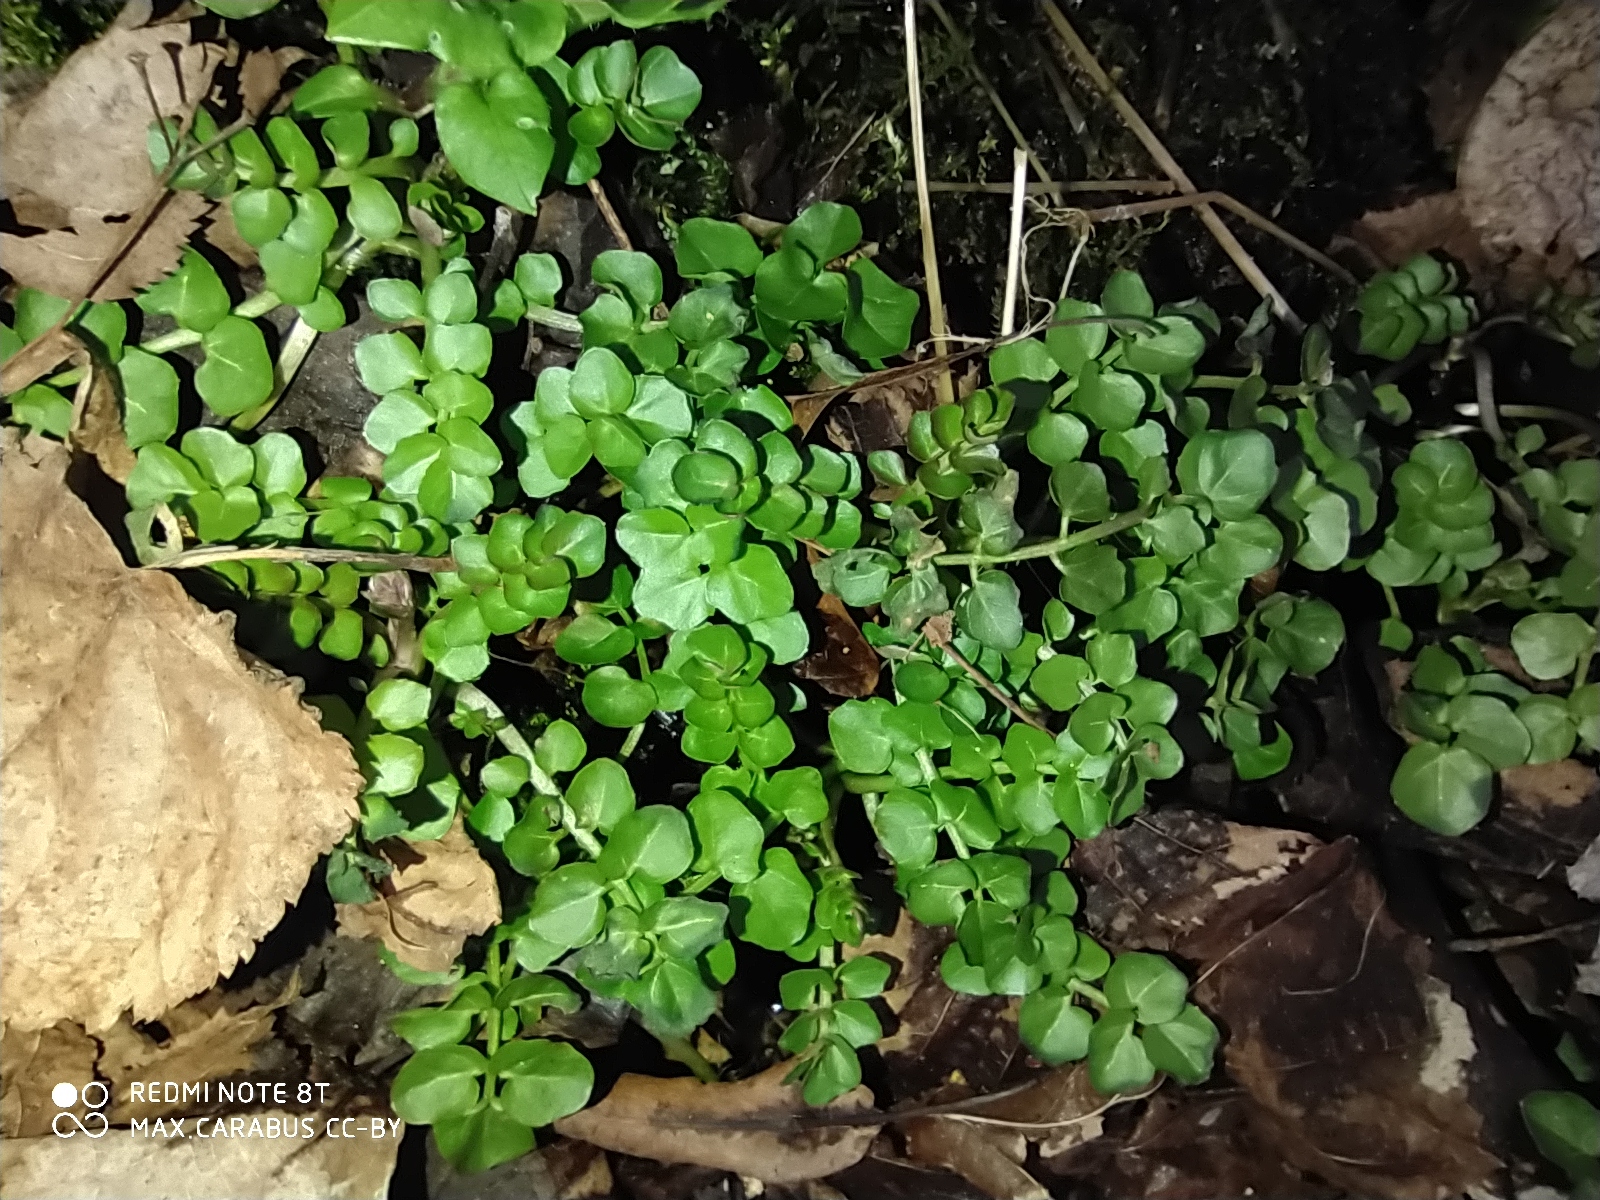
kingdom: Plantae
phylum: Tracheophyta
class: Magnoliopsida
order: Brassicales
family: Brassicaceae
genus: Cardamine
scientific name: Cardamine amara
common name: Large bitter-cress
